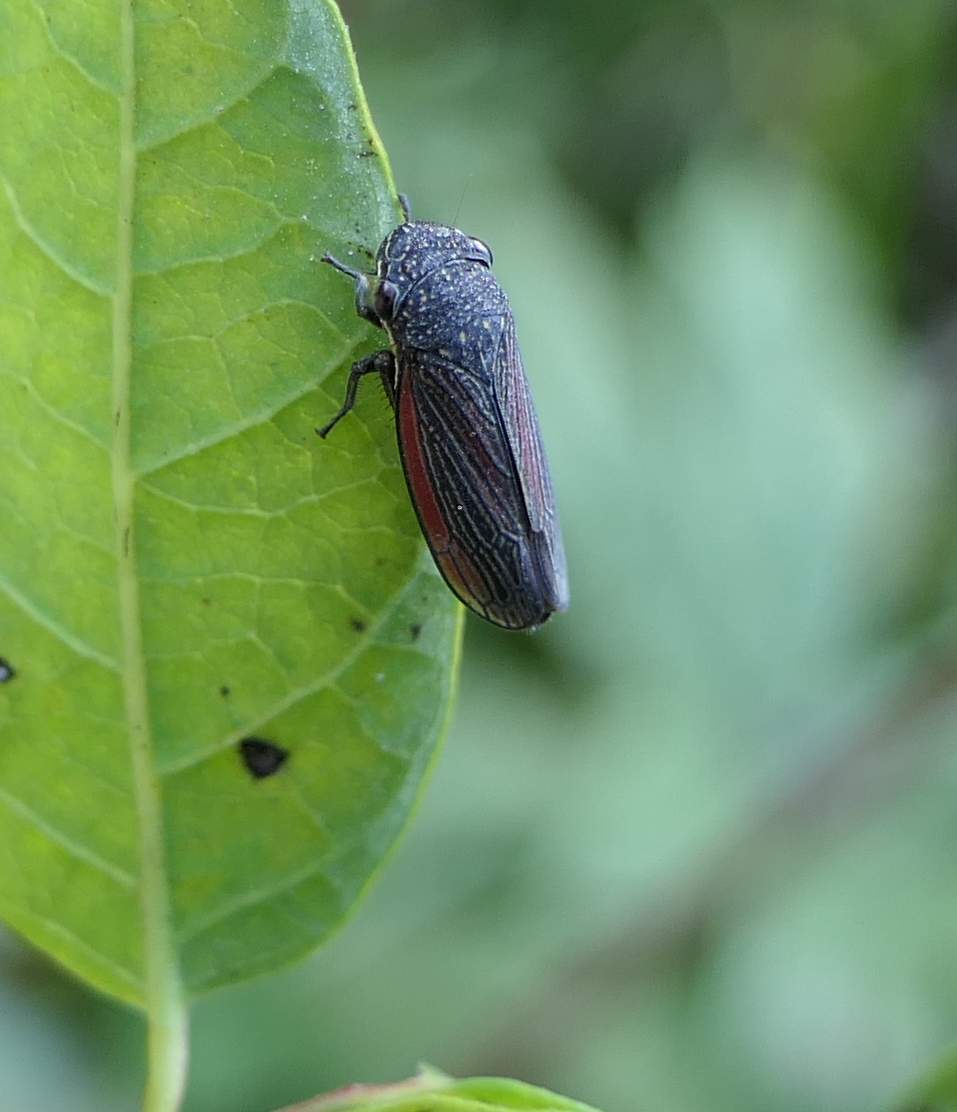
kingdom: Animalia
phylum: Arthropoda
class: Insecta
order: Hemiptera
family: Cicadellidae
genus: Cuerna
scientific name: Cuerna striata
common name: Striped leafhopper
